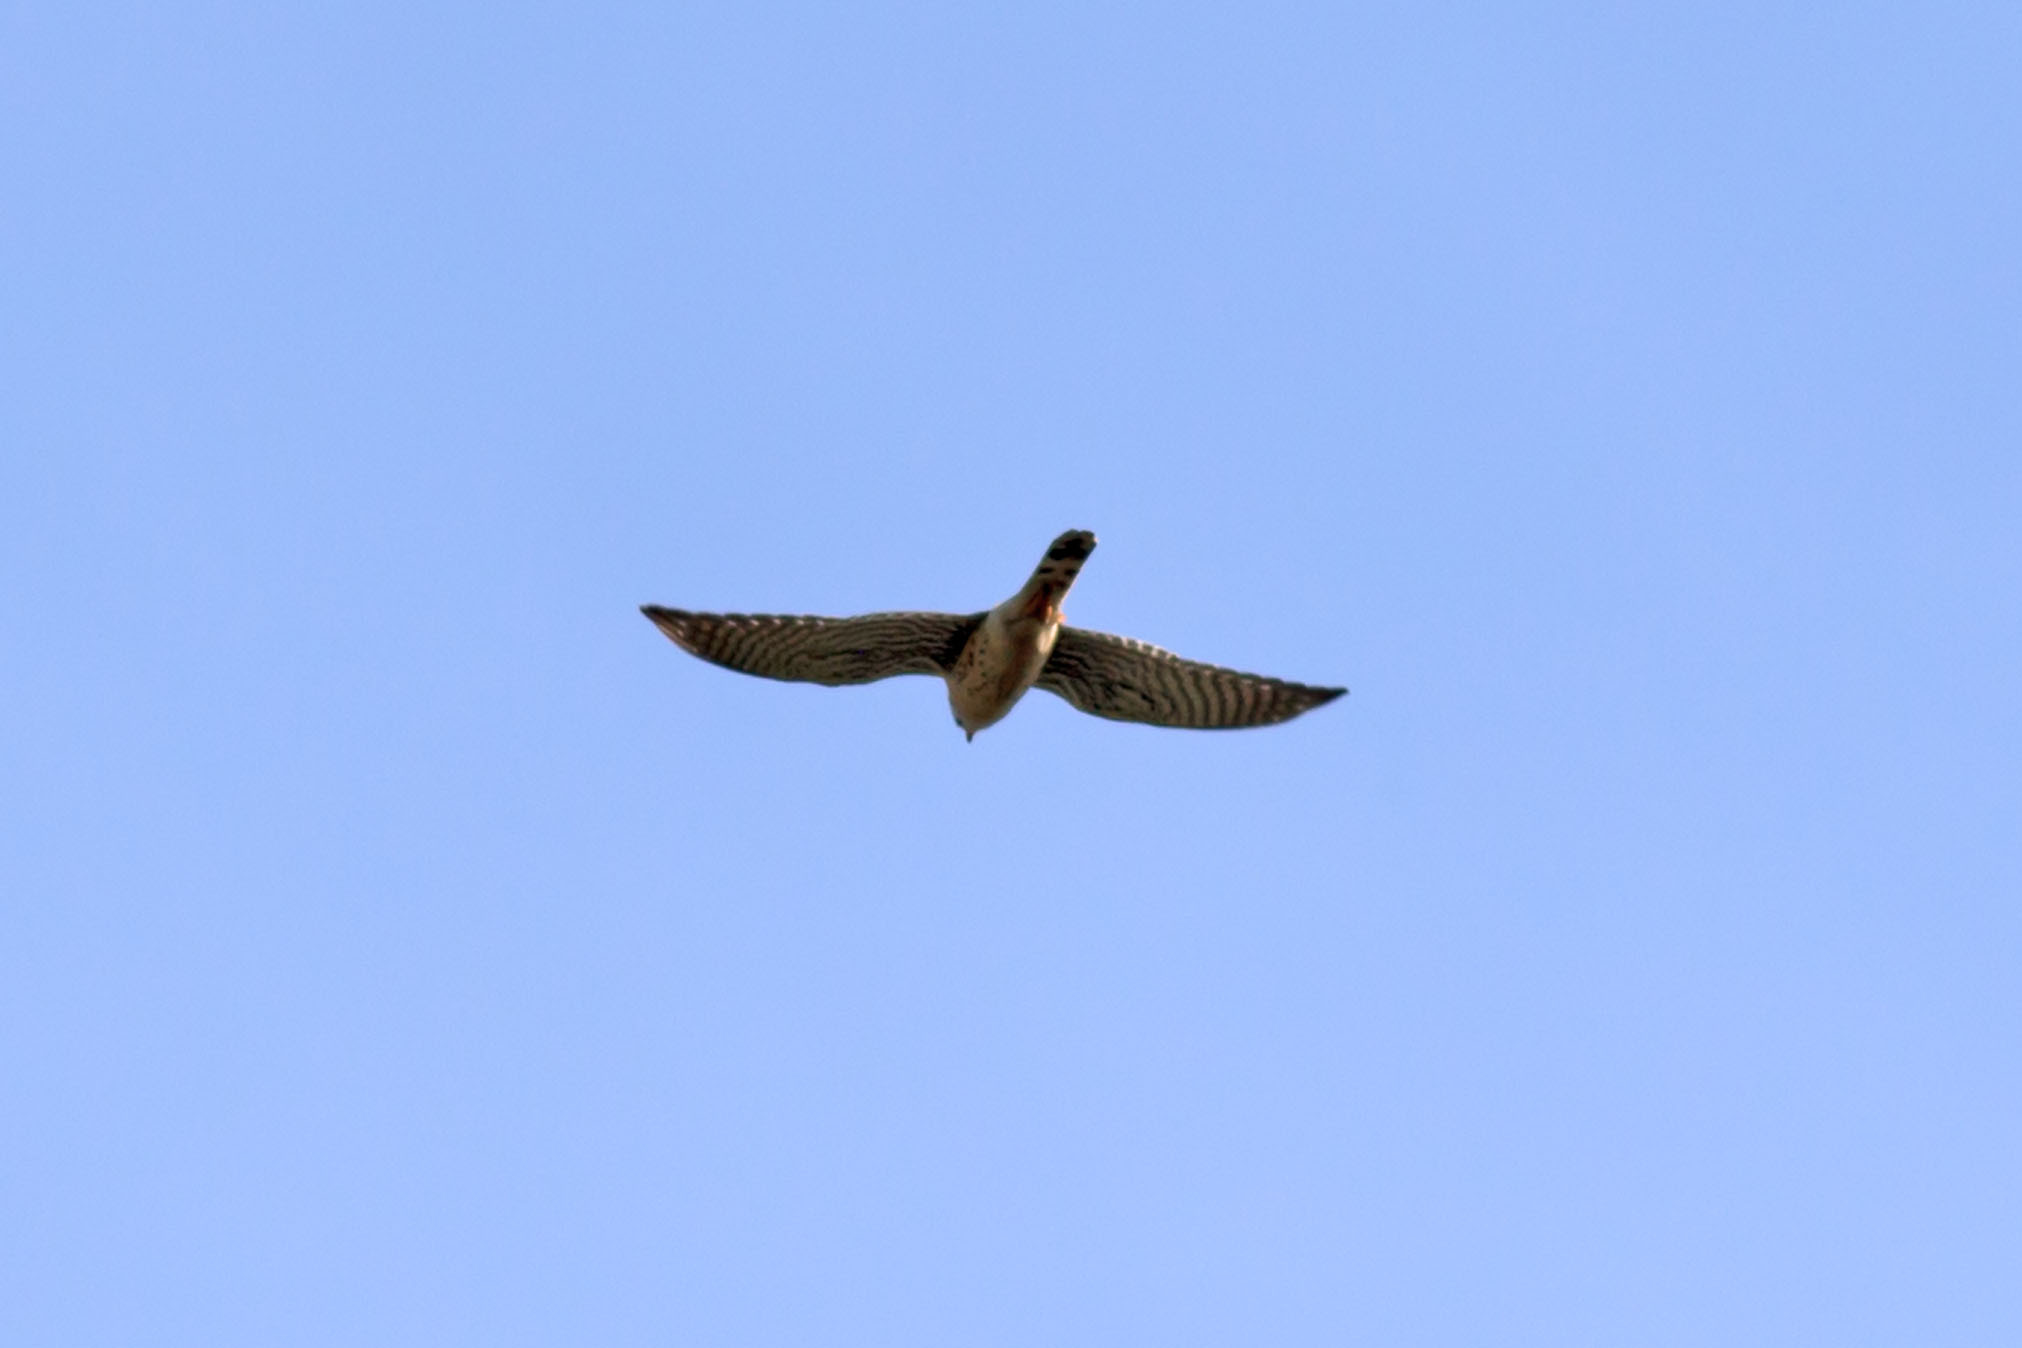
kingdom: Animalia
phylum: Chordata
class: Aves
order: Falconiformes
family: Falconidae
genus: Falco
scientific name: Falco sparverius
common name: American kestrel
